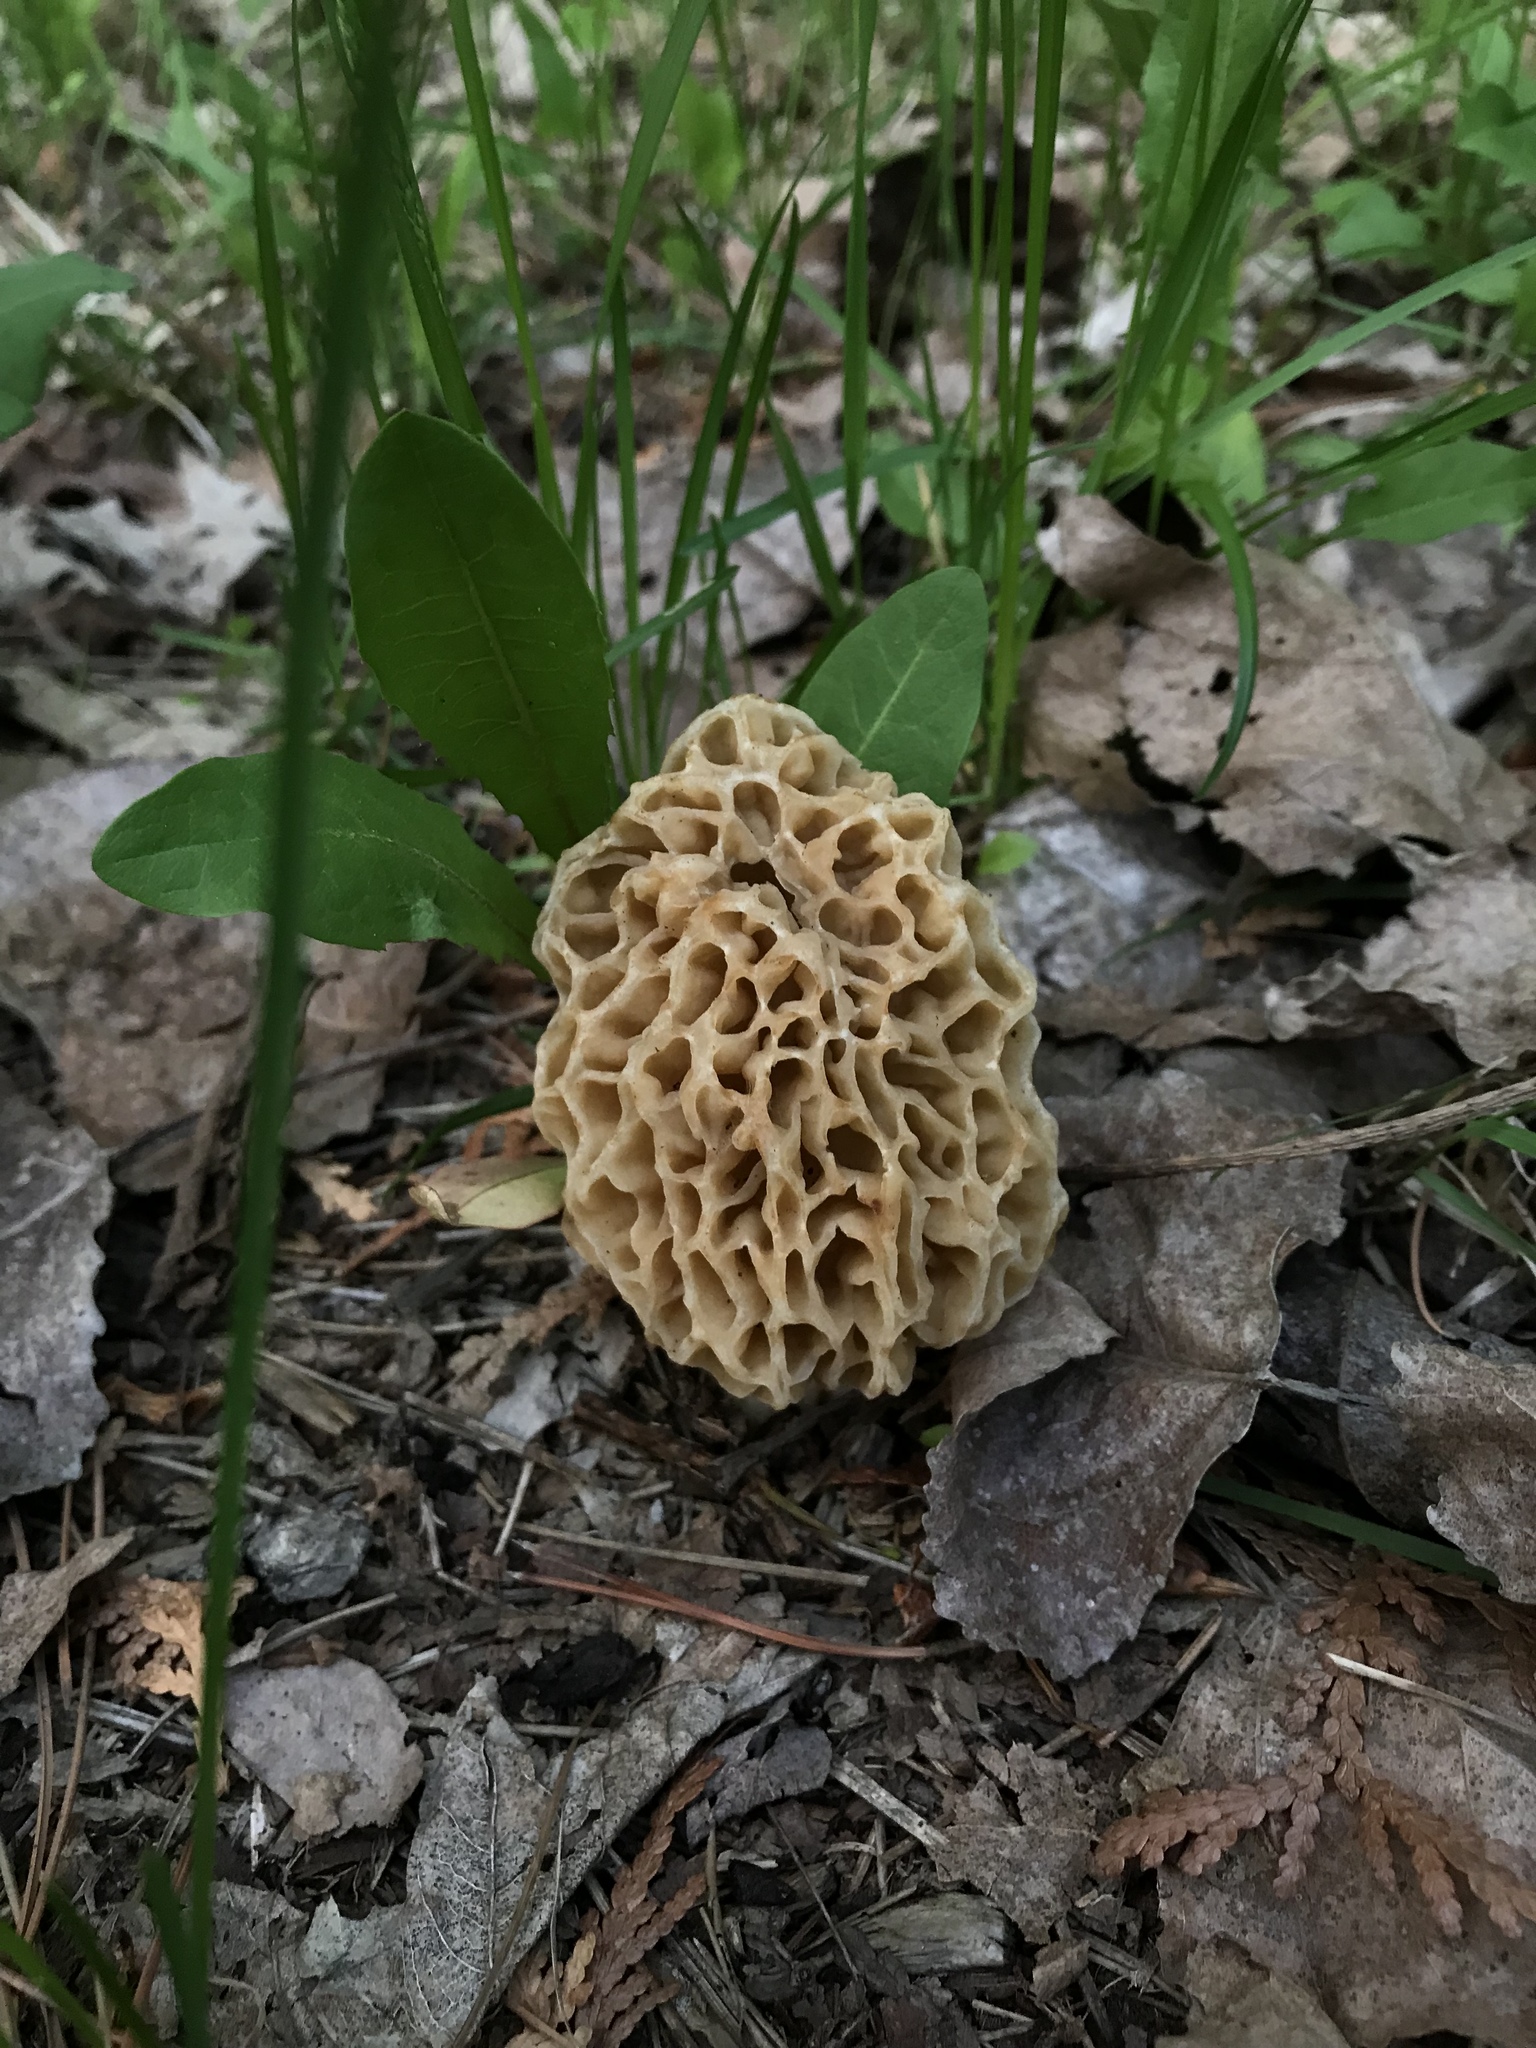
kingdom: Fungi
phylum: Ascomycota
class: Pezizomycetes
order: Pezizales
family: Morchellaceae
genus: Morchella
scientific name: Morchella
